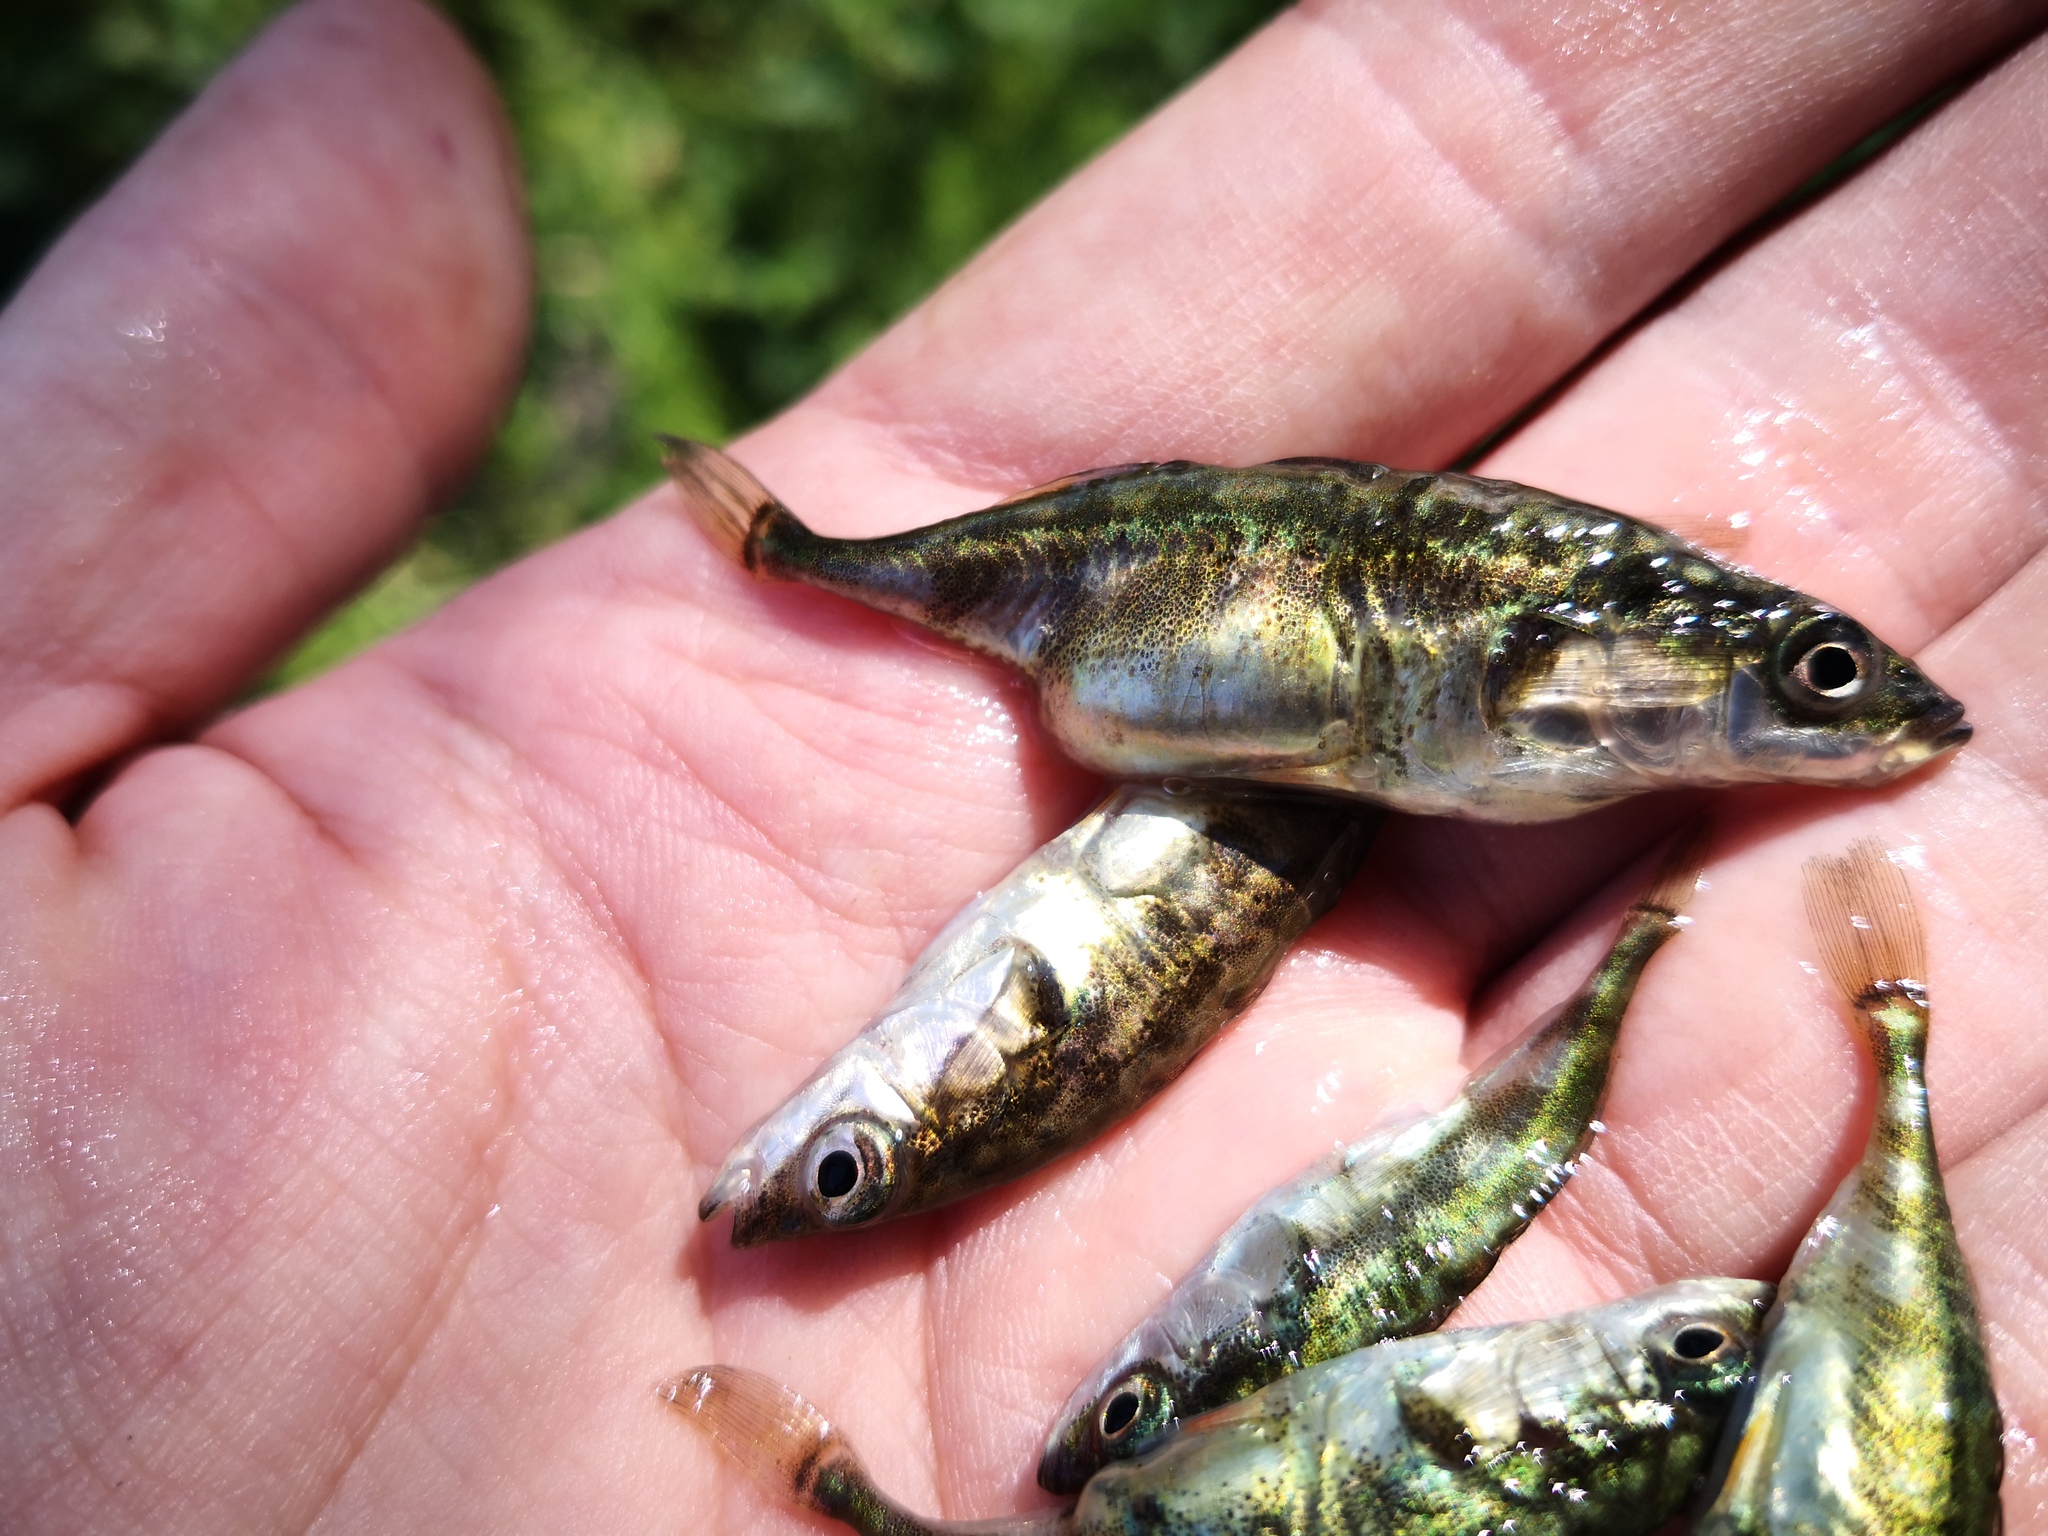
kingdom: Animalia
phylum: Chordata
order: Gasterosteiformes
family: Gasterosteidae
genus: Gasterosteus
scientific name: Gasterosteus aculeatus
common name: Three-spined stickleback
